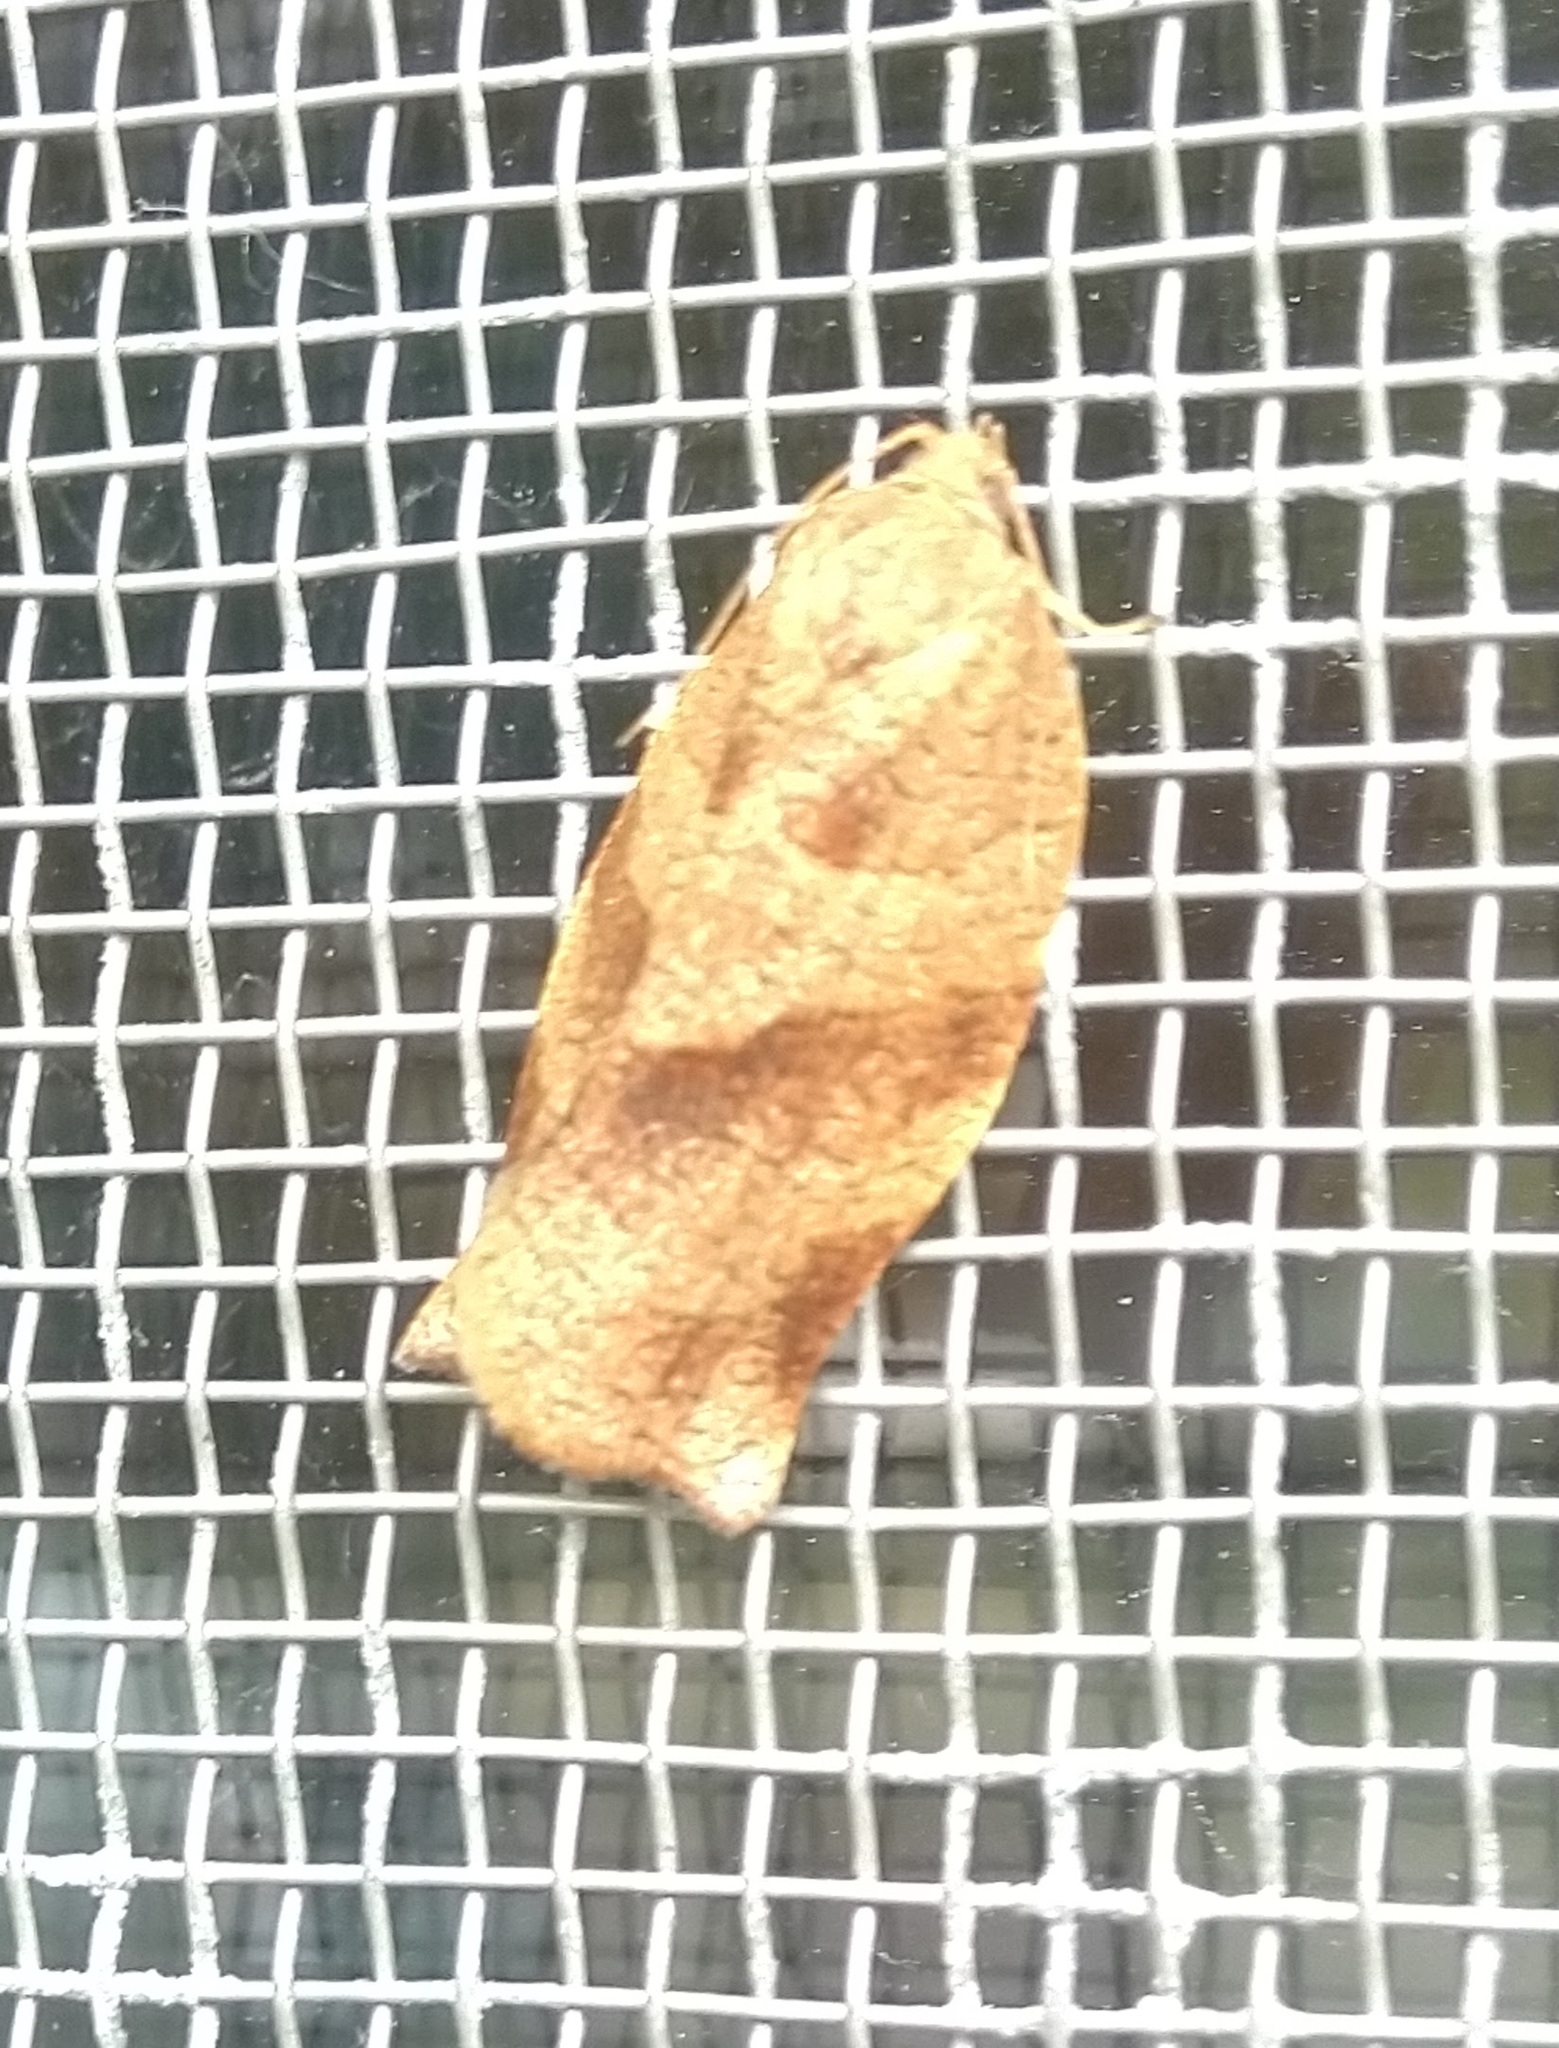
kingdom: Animalia
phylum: Arthropoda
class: Insecta
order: Lepidoptera
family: Tortricidae
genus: Choristoneura
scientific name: Choristoneura rosaceana
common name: Oblique-banded leafroller moth
